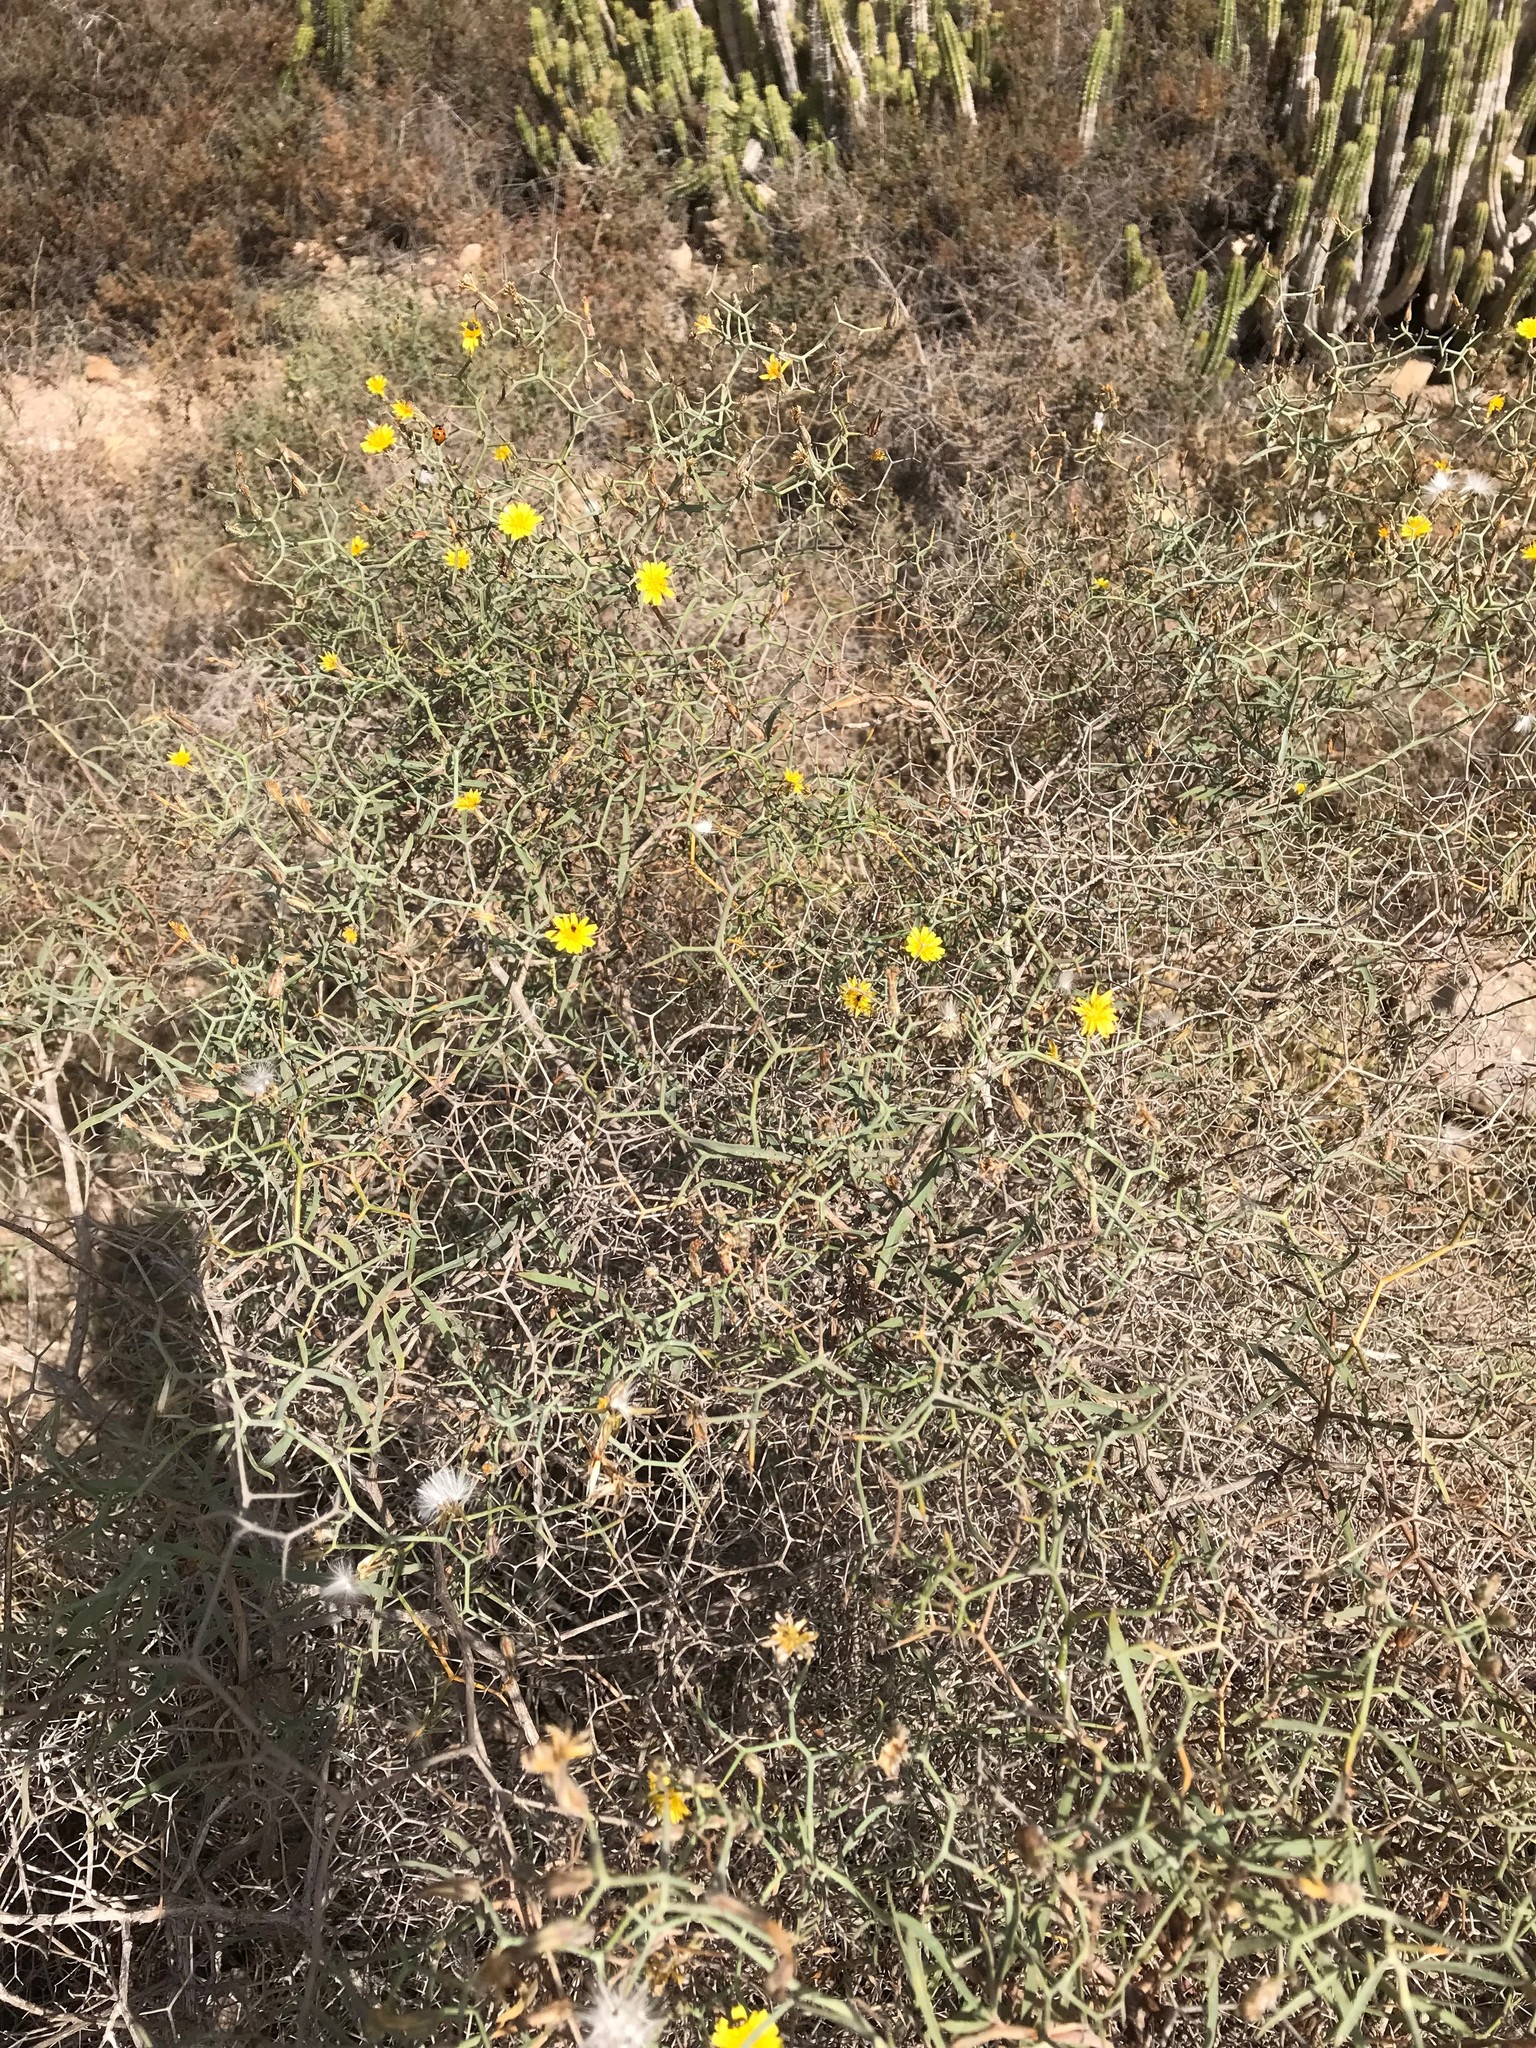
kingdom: Plantae
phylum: Tracheophyta
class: Magnoliopsida
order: Asterales
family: Asteraceae
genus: Launaea
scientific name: Launaea arborescens
